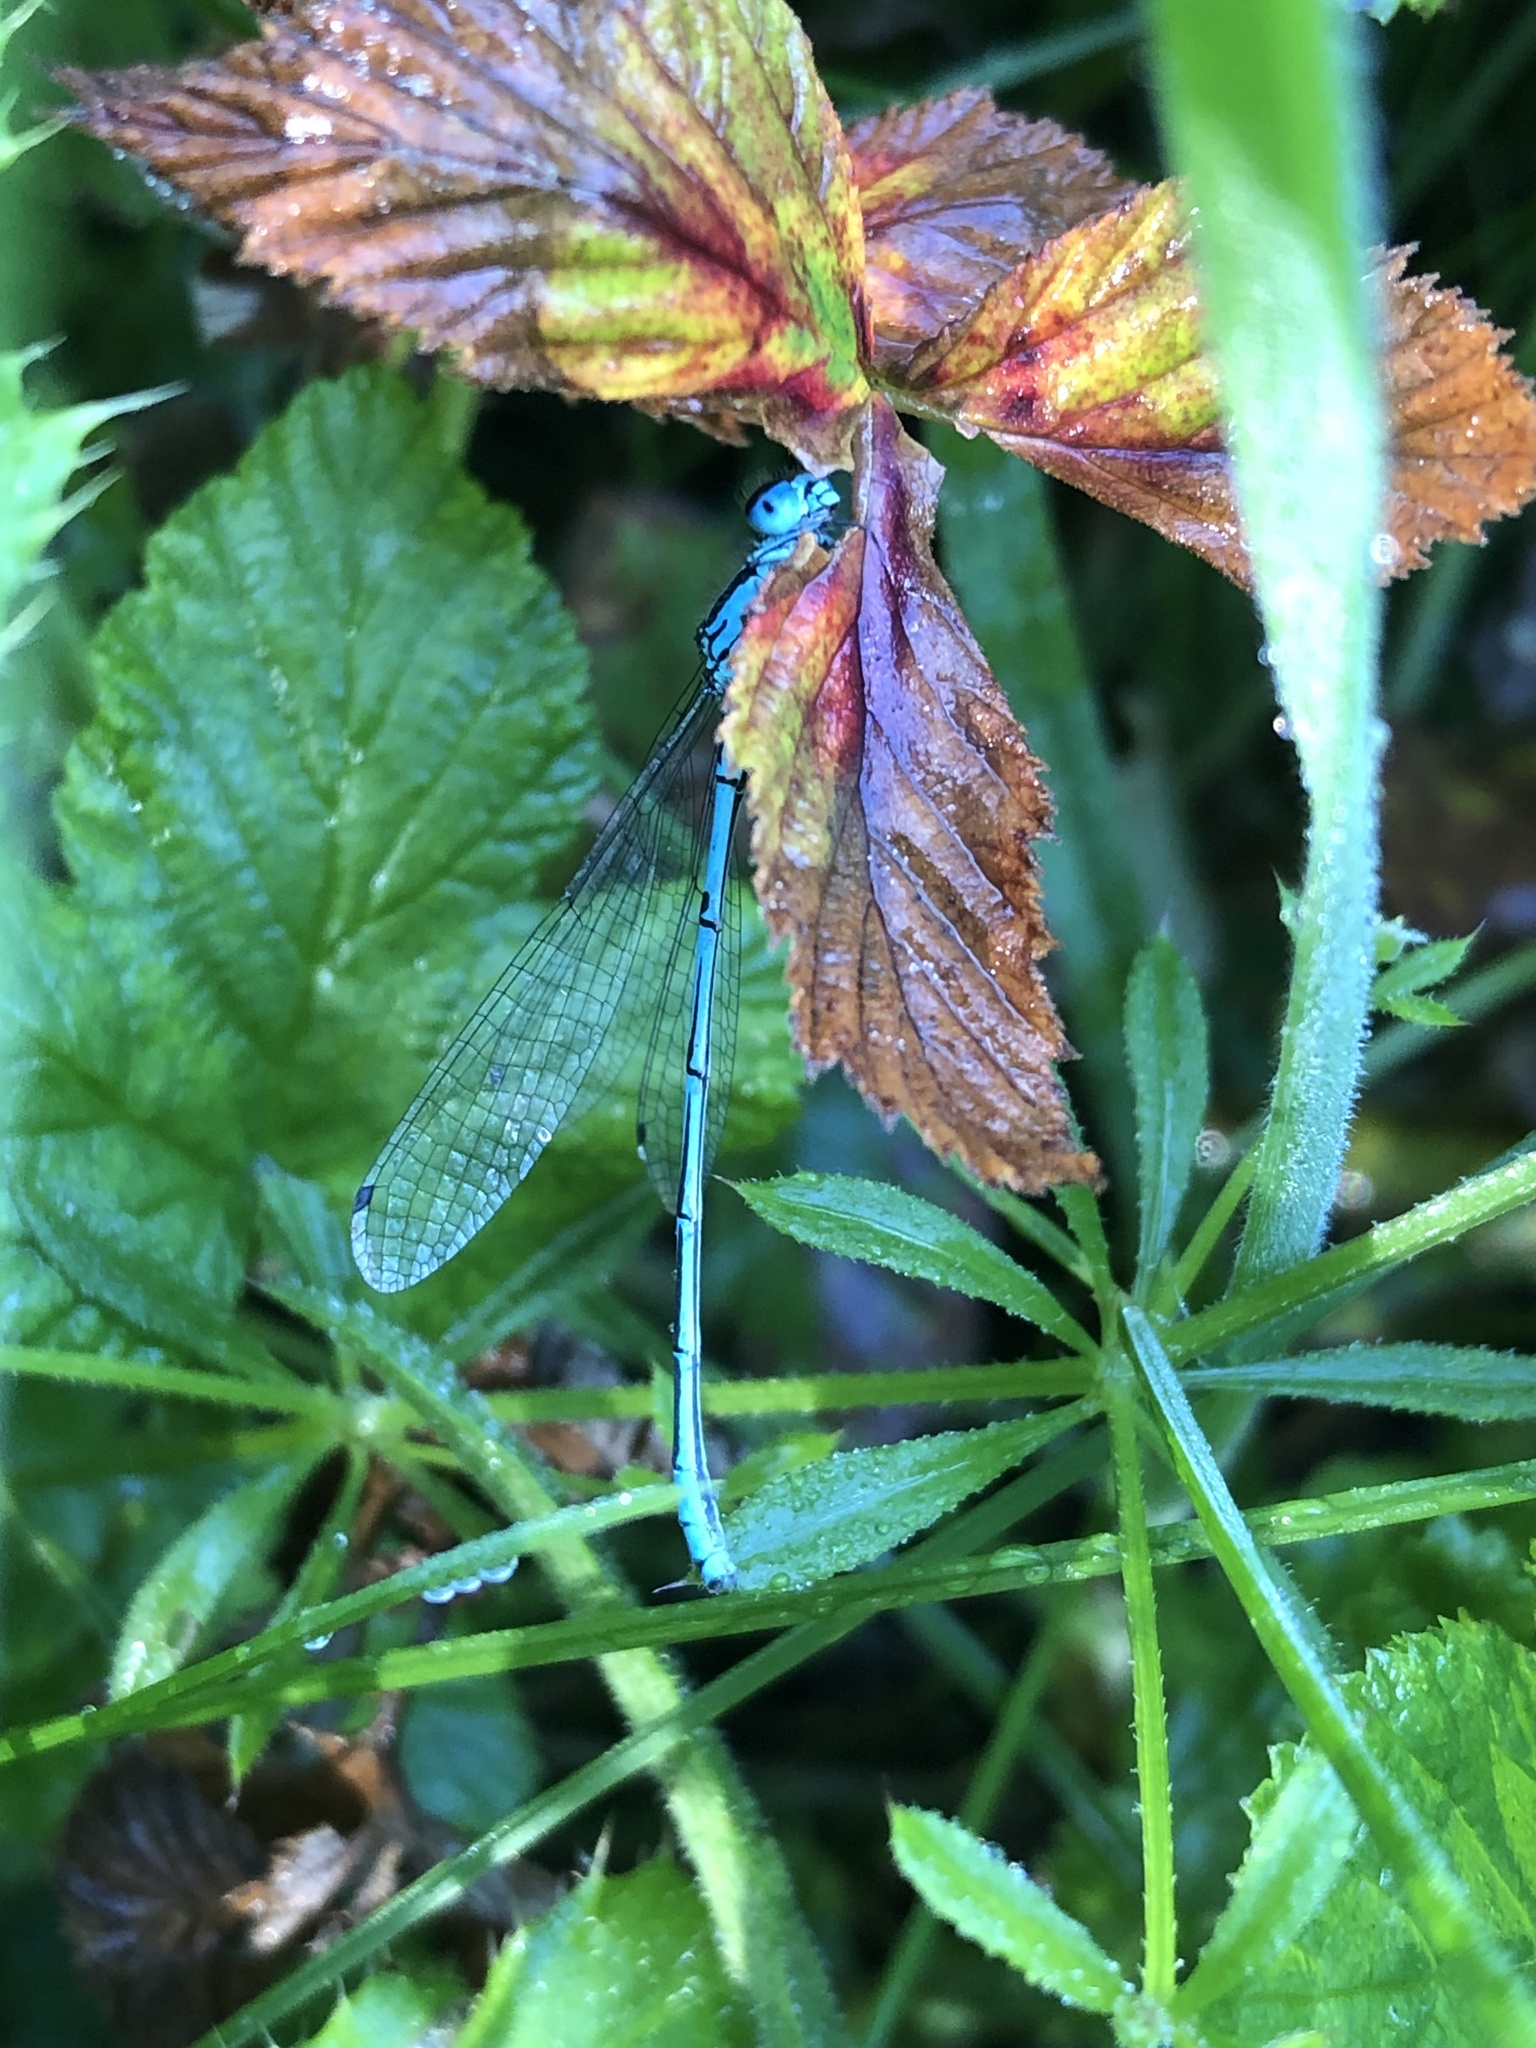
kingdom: Animalia
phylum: Arthropoda
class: Insecta
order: Odonata
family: Coenagrionidae
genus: Coenagrion
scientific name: Coenagrion puella
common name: Azure damselfly
